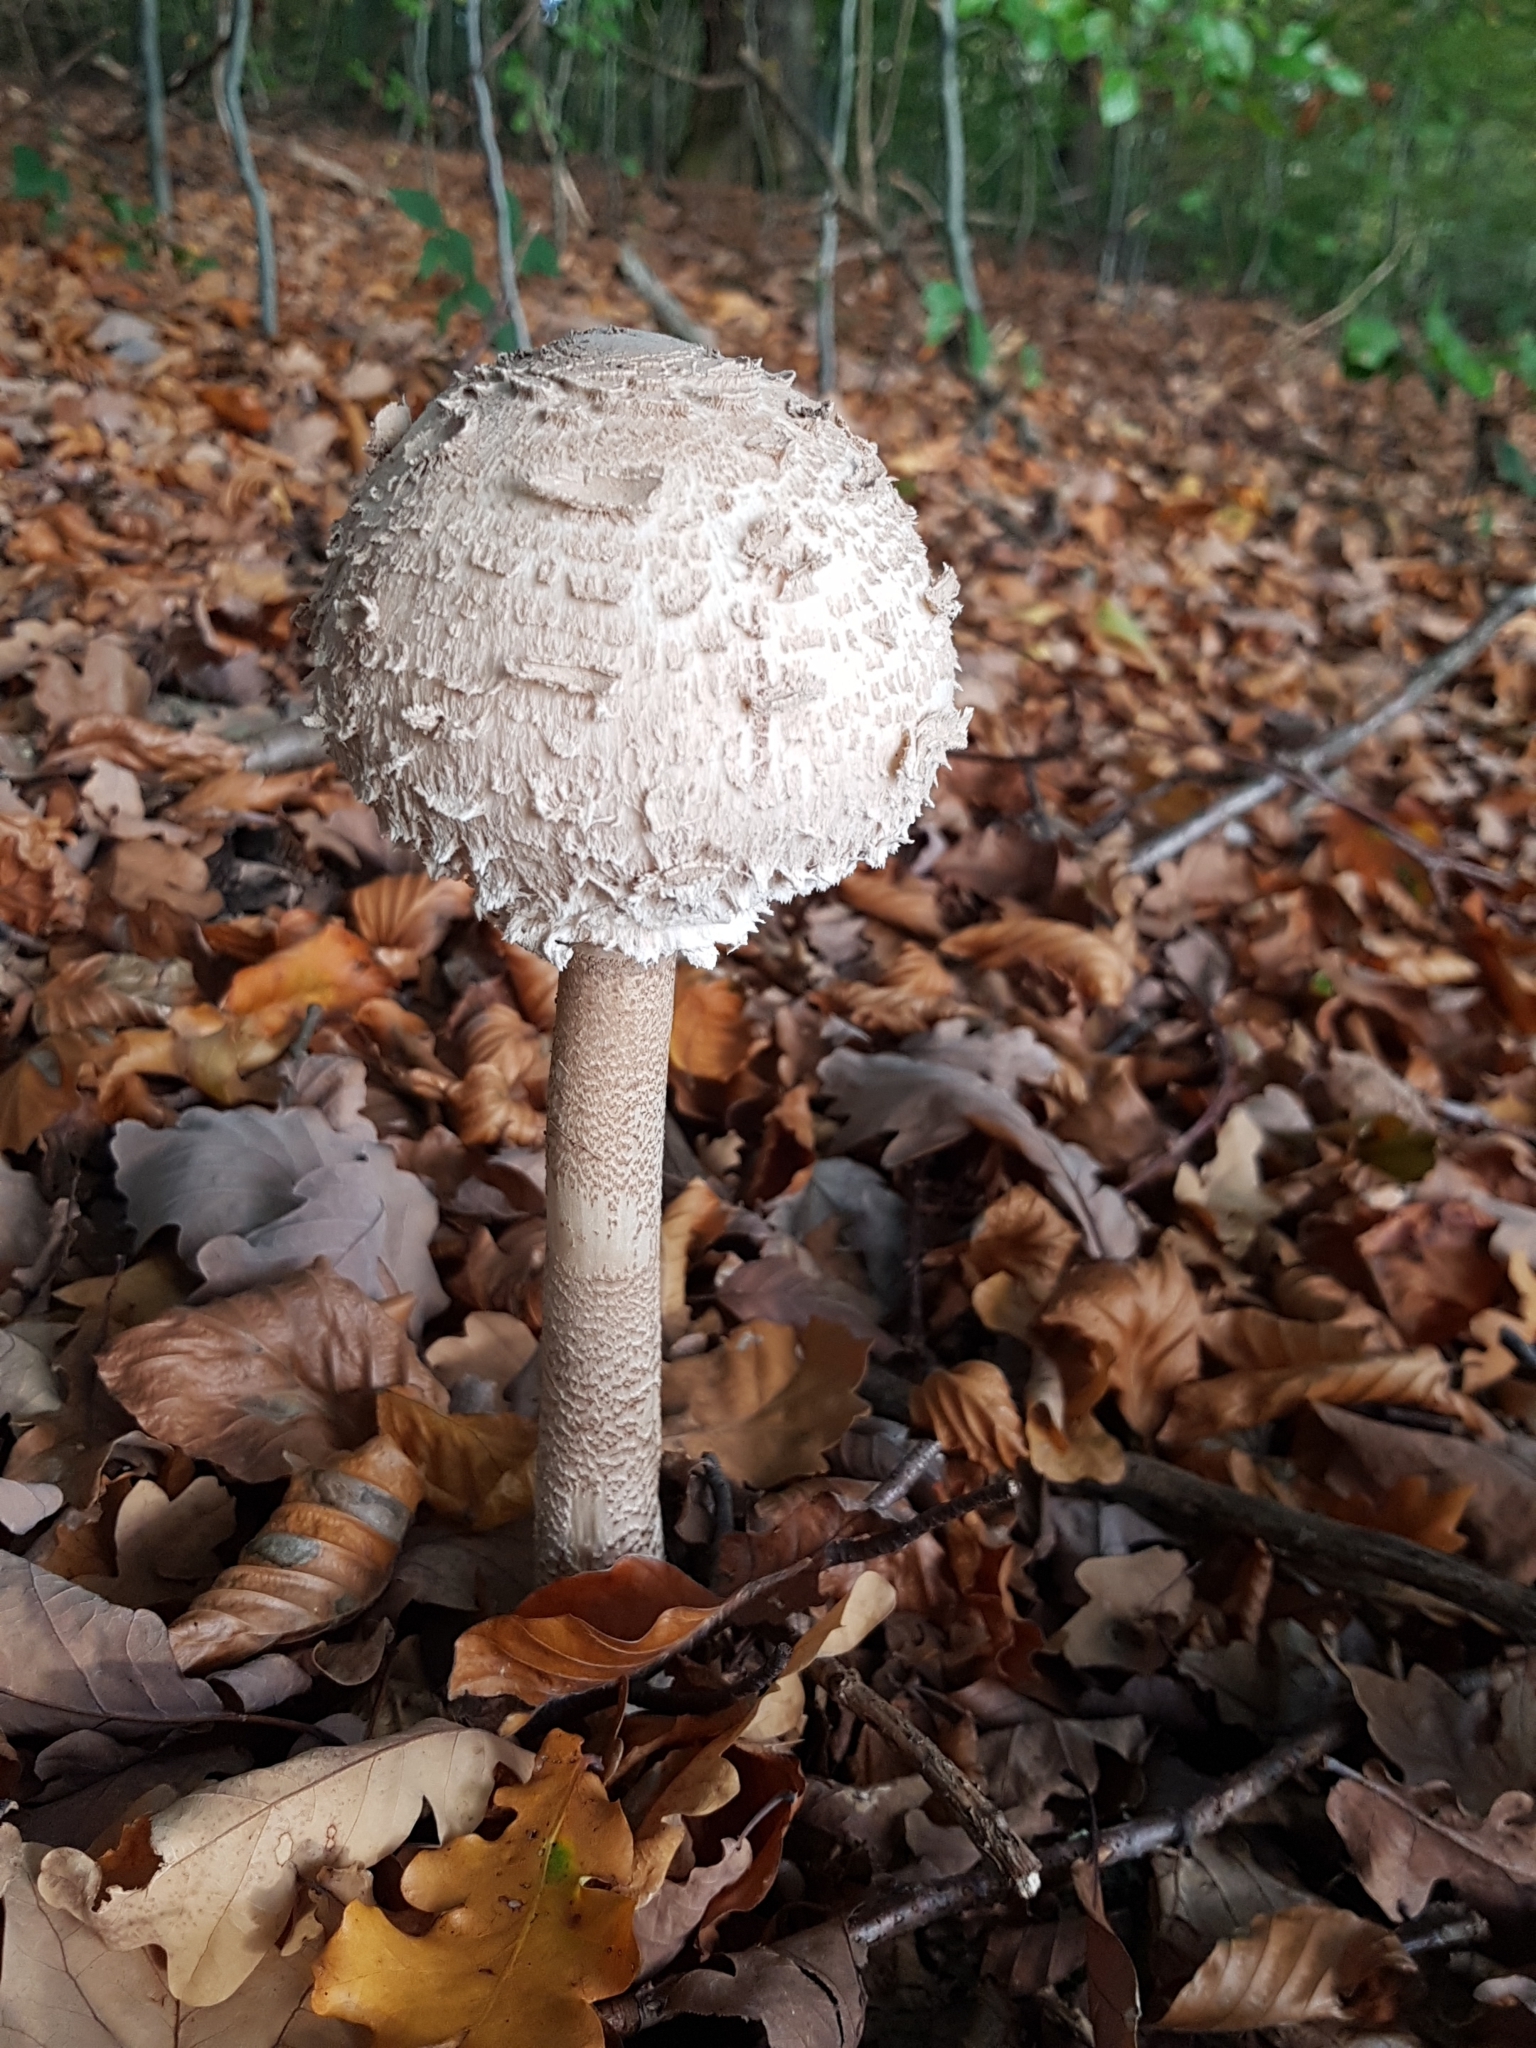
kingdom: Fungi
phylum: Basidiomycota
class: Agaricomycetes
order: Agaricales
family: Agaricaceae
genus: Macrolepiota
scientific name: Macrolepiota procera
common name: Parasol
